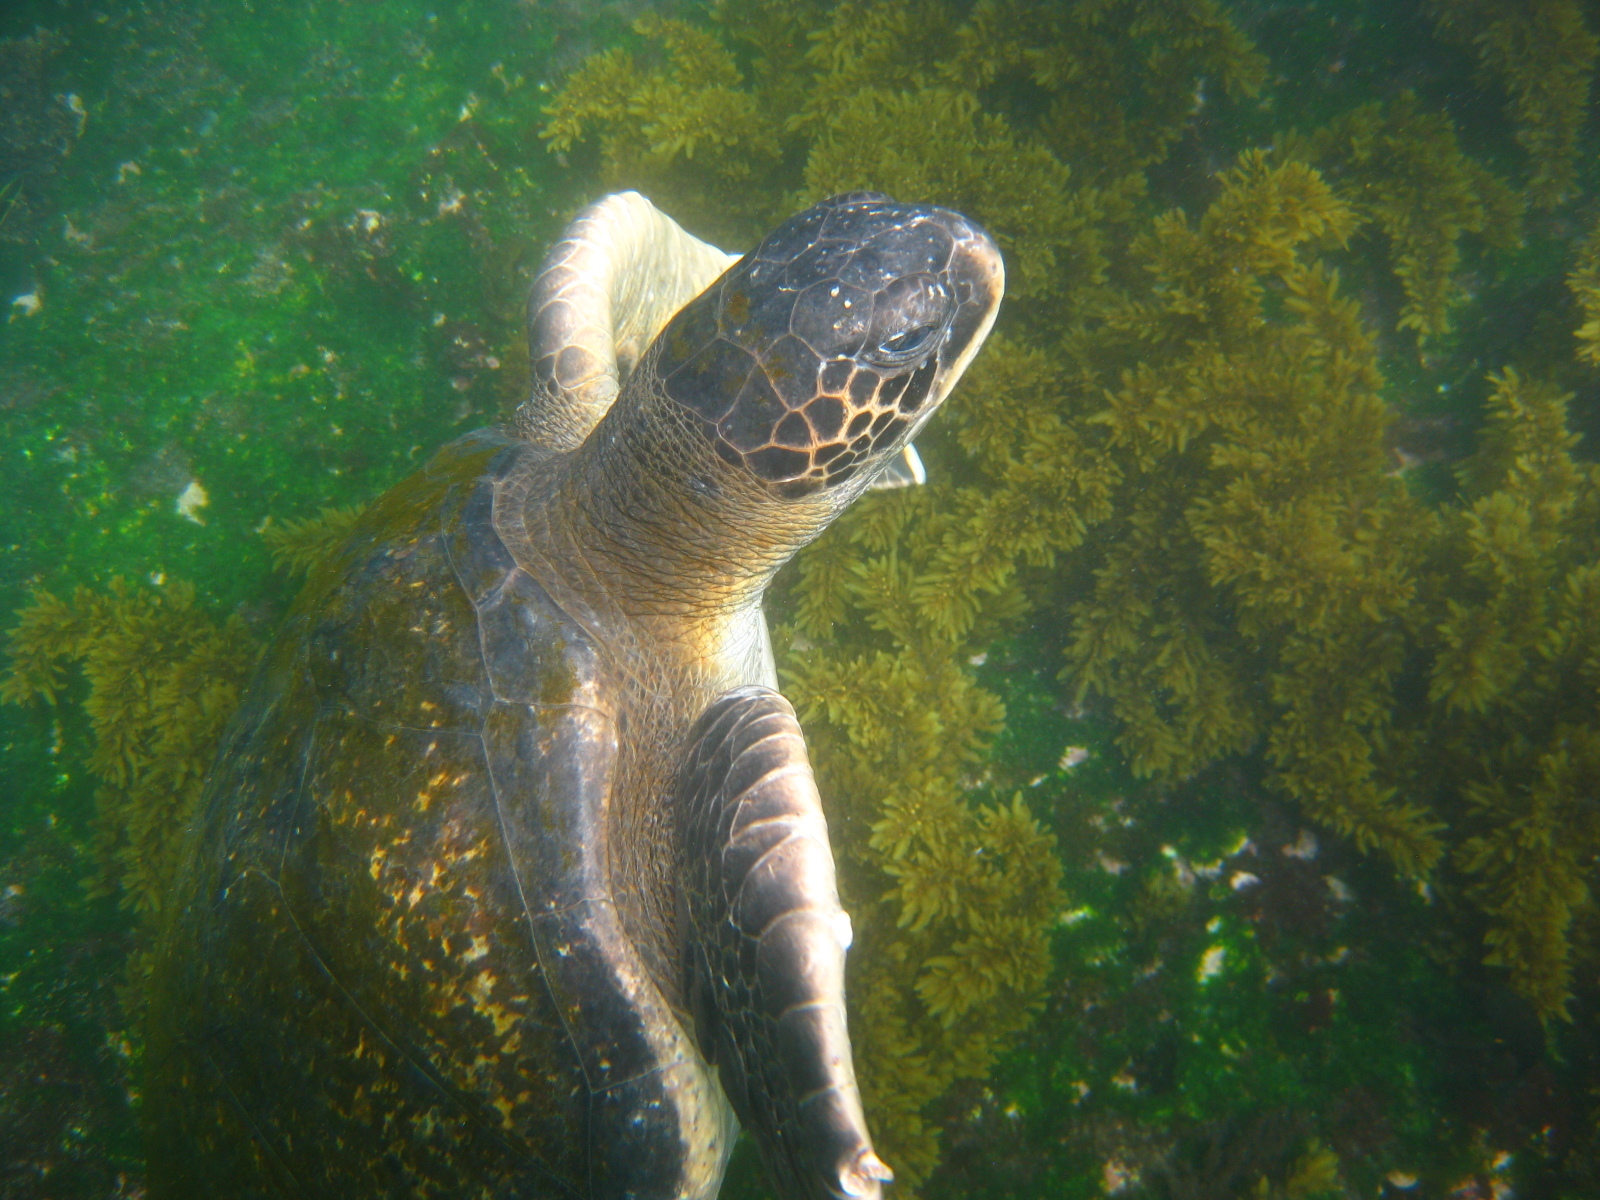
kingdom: Animalia
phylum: Chordata
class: Testudines
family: Cheloniidae
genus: Chelonia
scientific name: Chelonia mydas
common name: Green turtle
